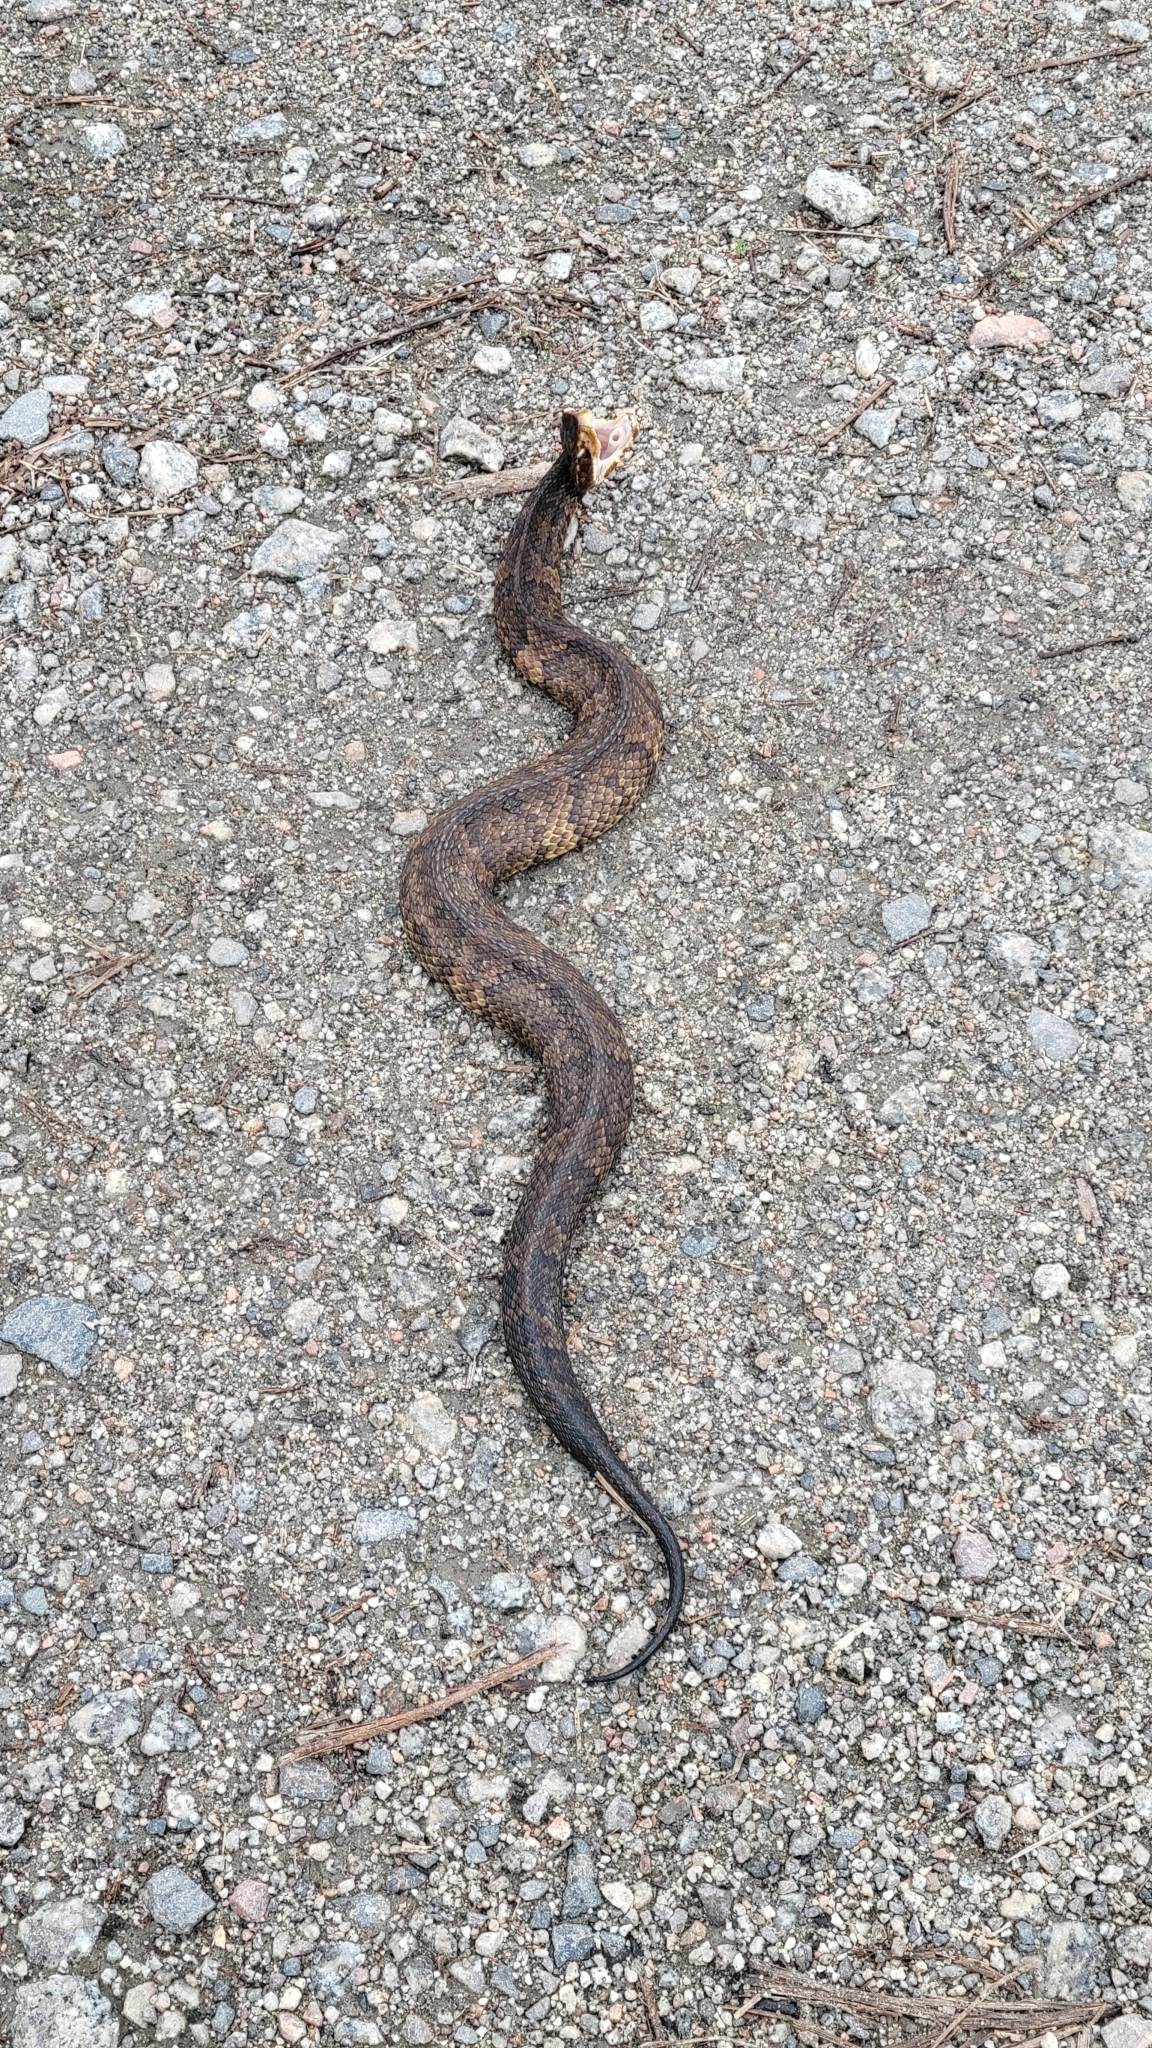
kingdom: Animalia
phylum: Chordata
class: Squamata
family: Viperidae
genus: Agkistrodon
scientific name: Agkistrodon piscivorus
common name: Cottonmouth
